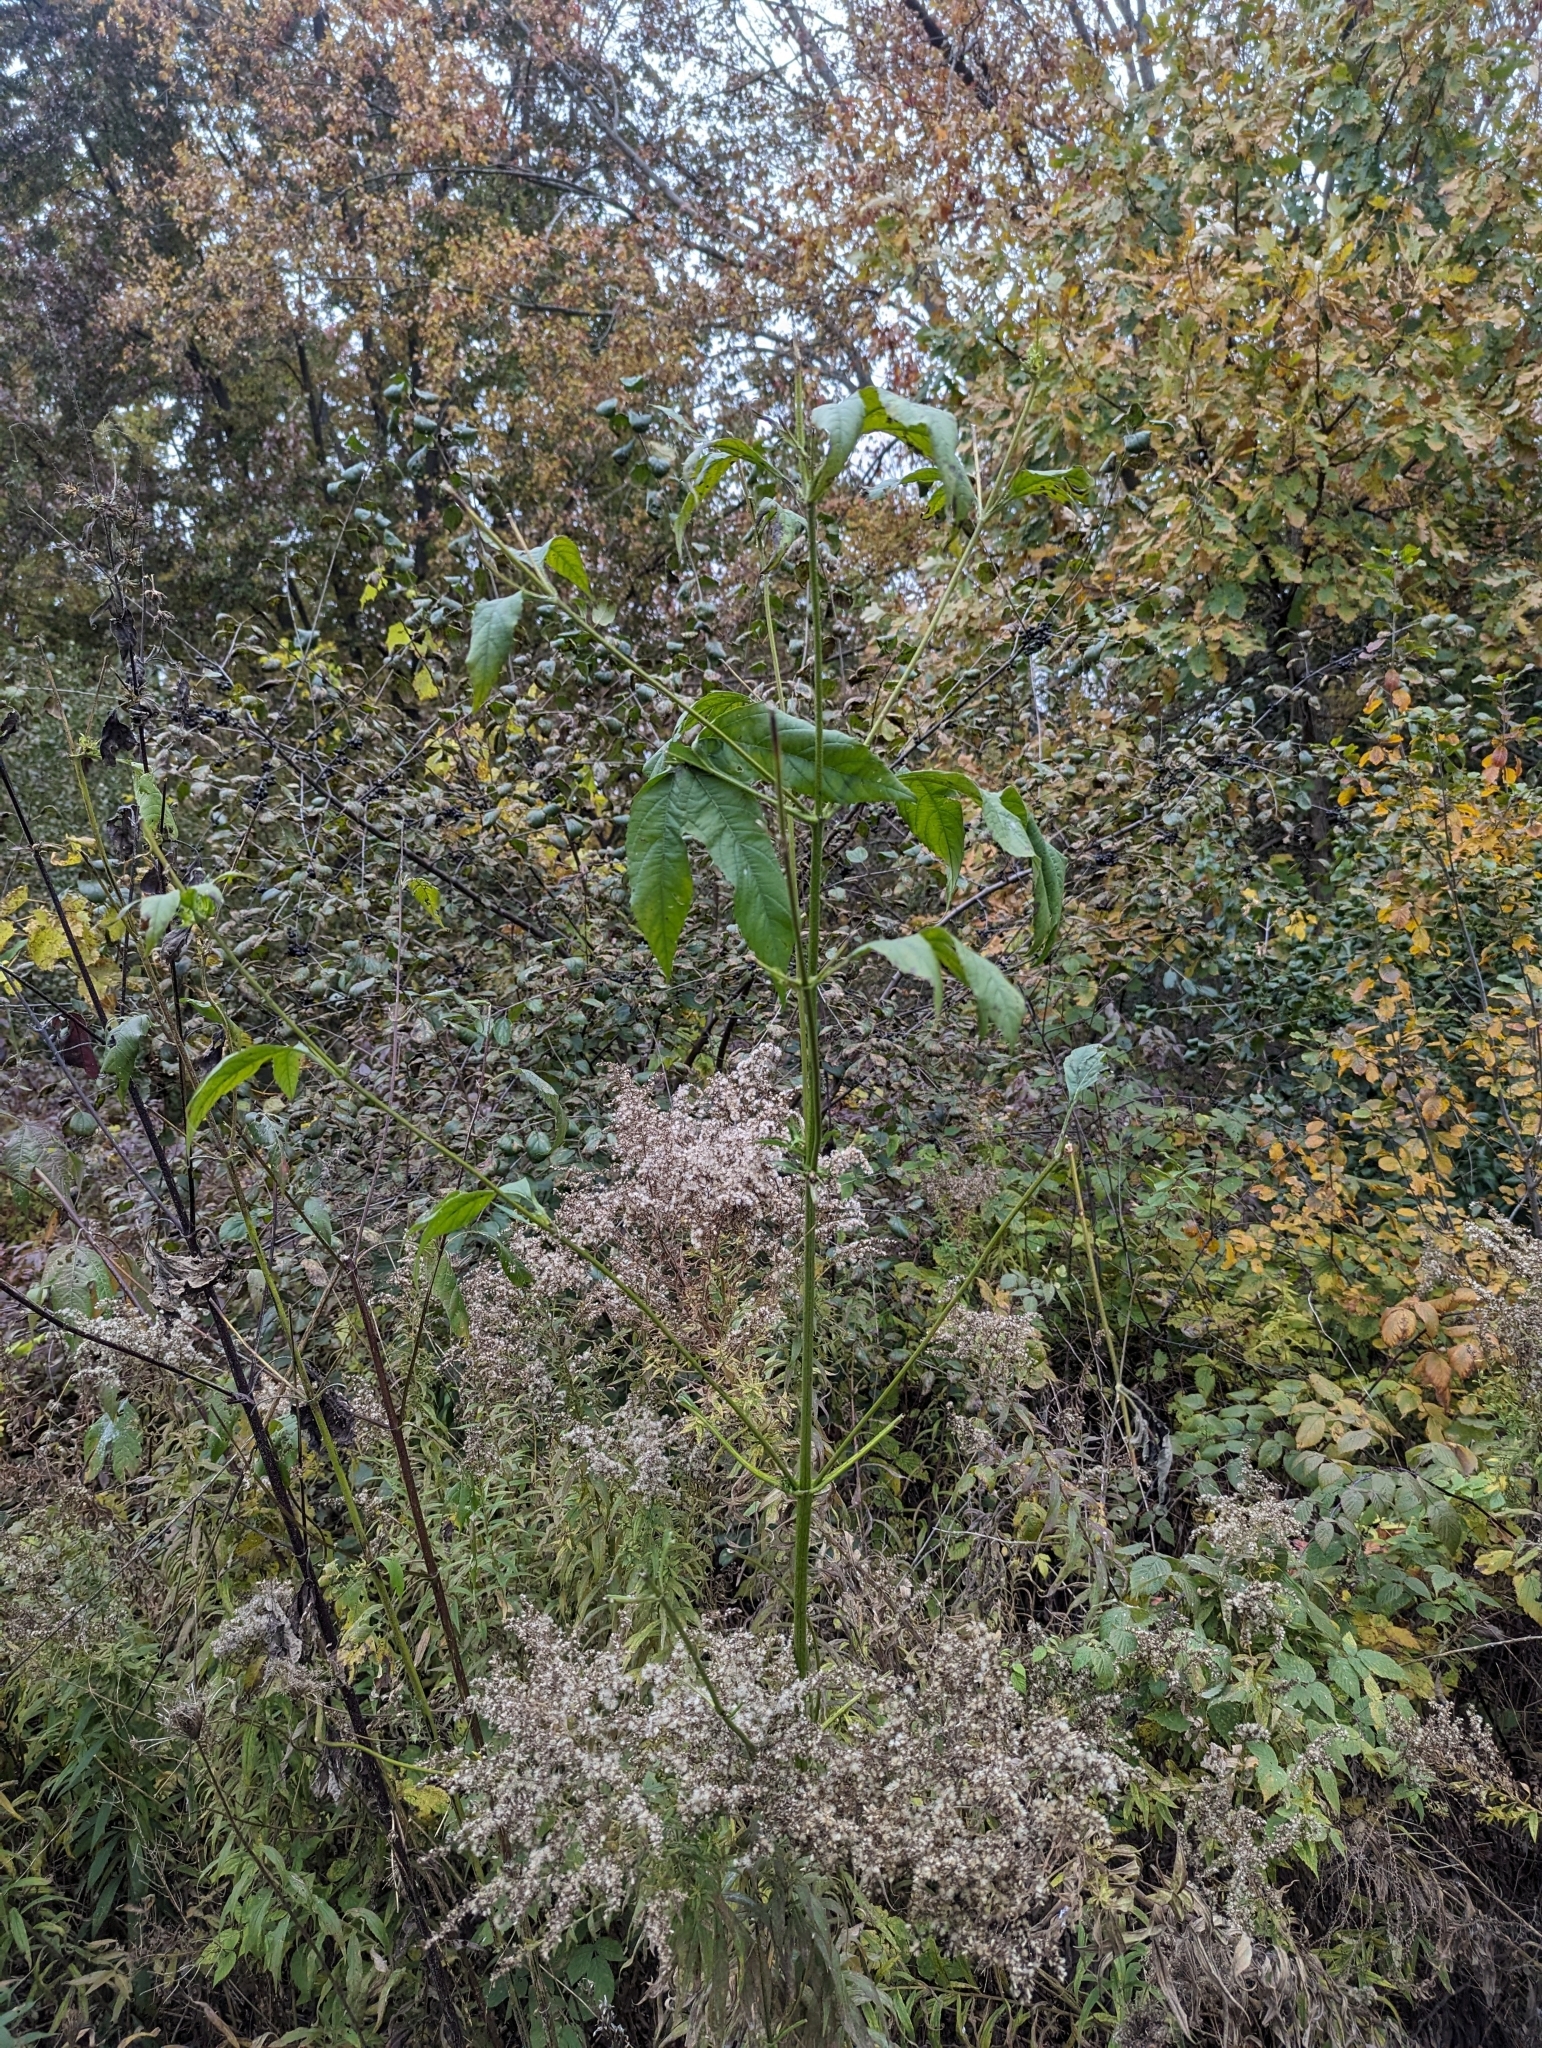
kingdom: Plantae
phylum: Tracheophyta
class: Magnoliopsida
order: Asterales
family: Asteraceae
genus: Ambrosia
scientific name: Ambrosia trifida
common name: Giant ragweed
